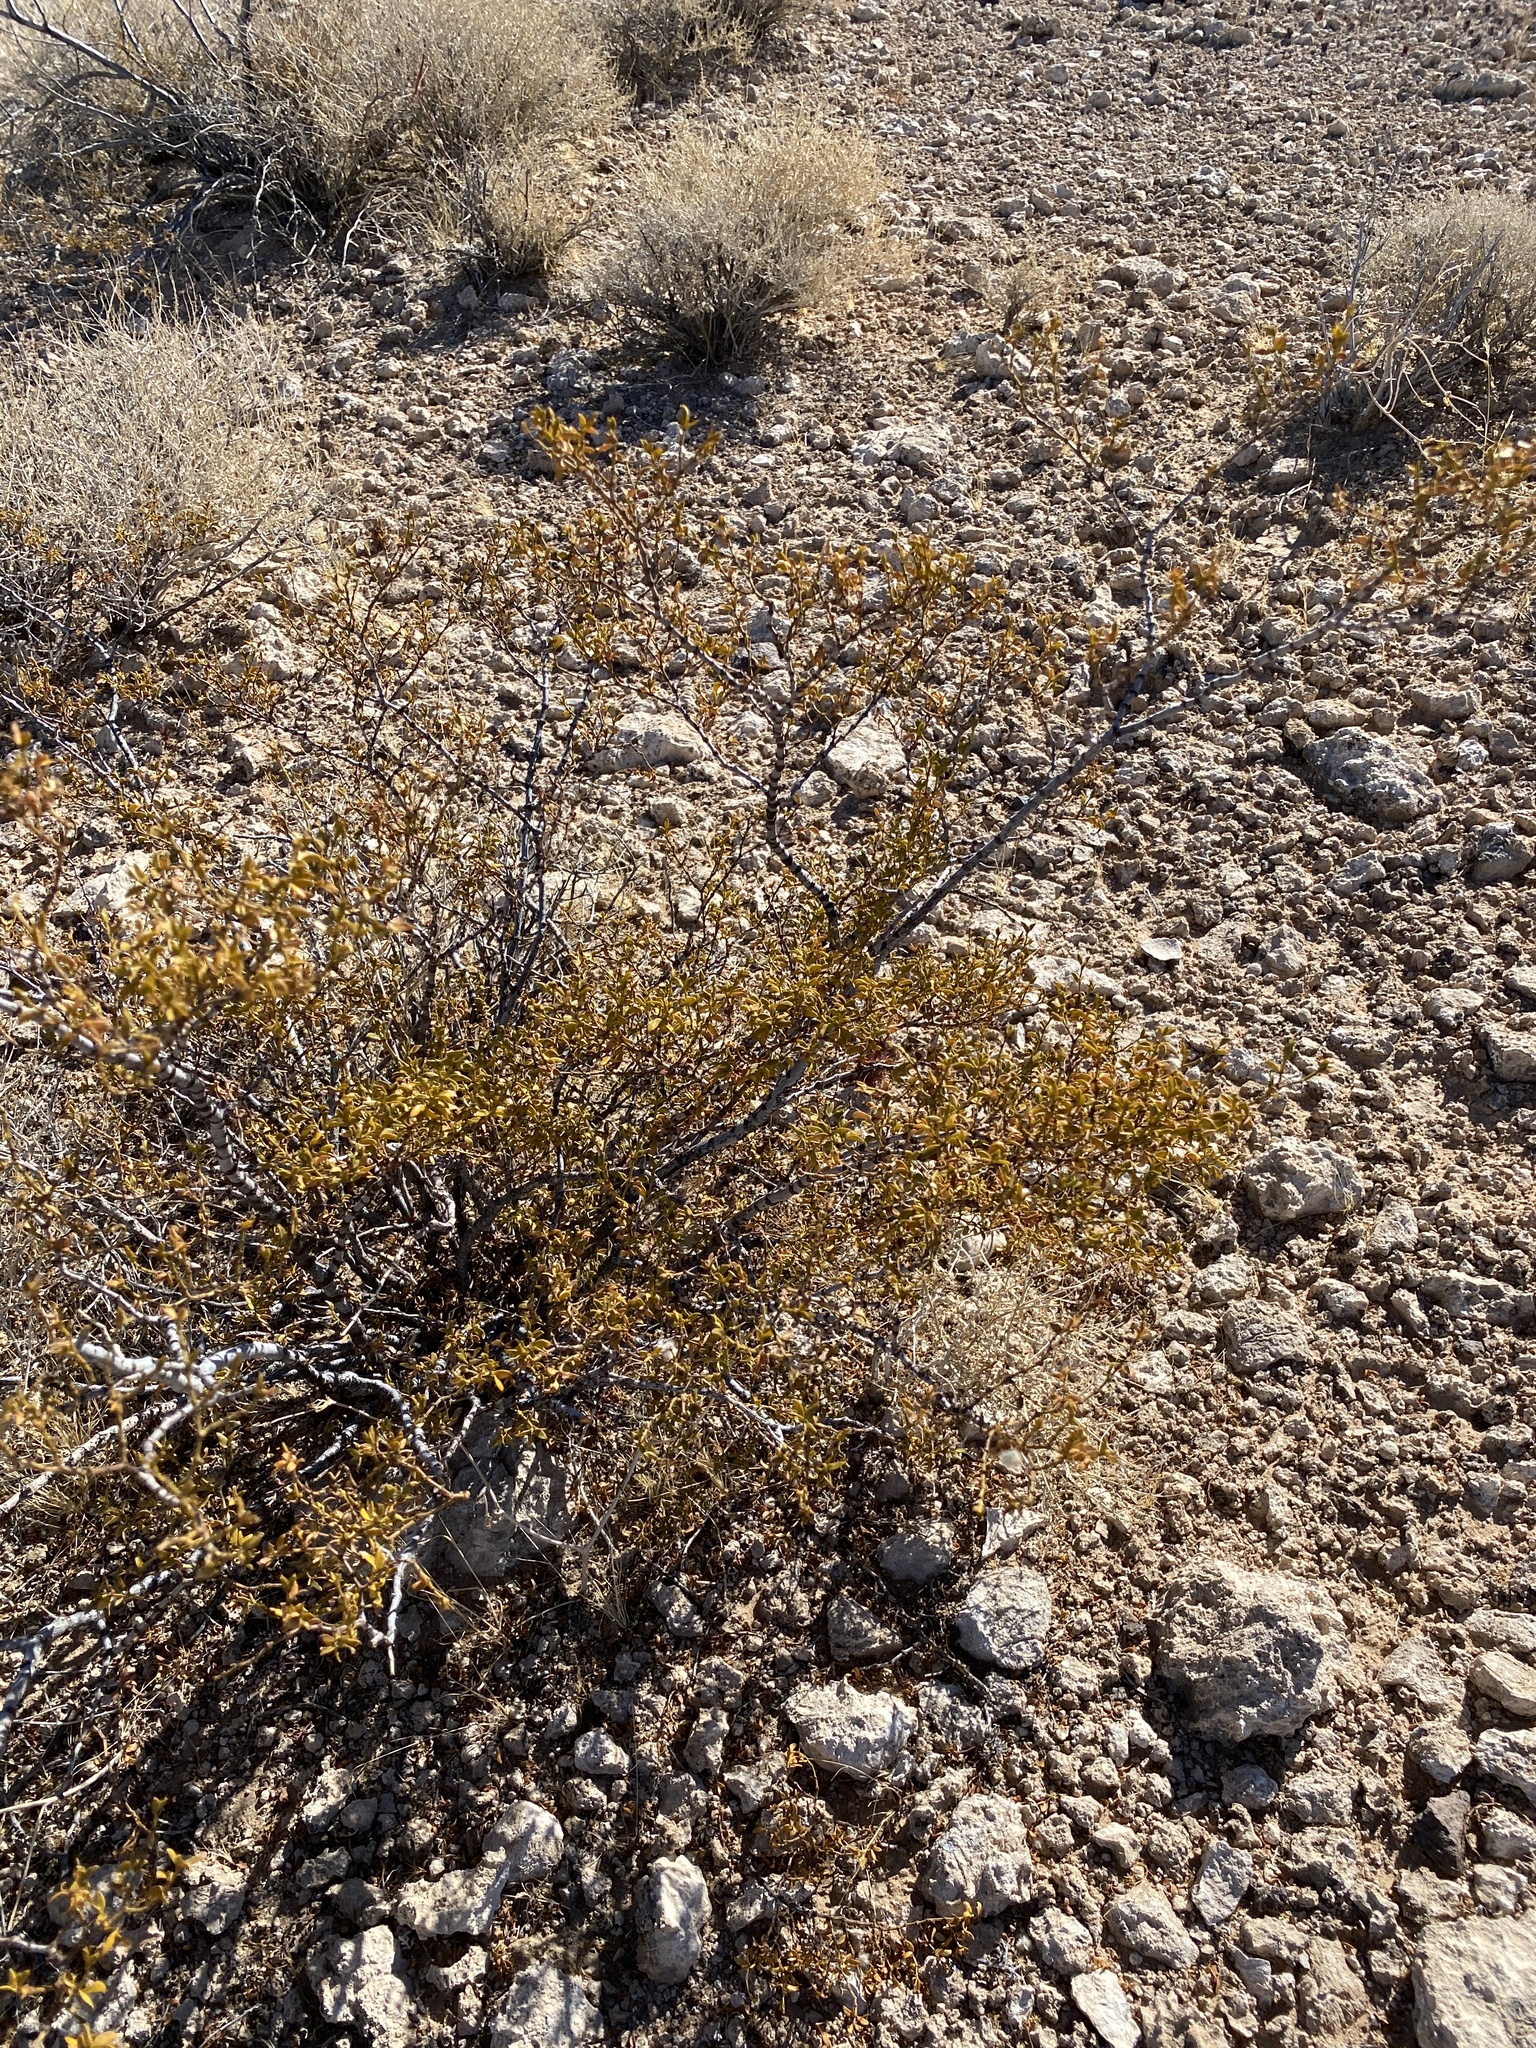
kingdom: Plantae
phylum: Tracheophyta
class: Magnoliopsida
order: Zygophyllales
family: Zygophyllaceae
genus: Larrea
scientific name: Larrea tridentata
